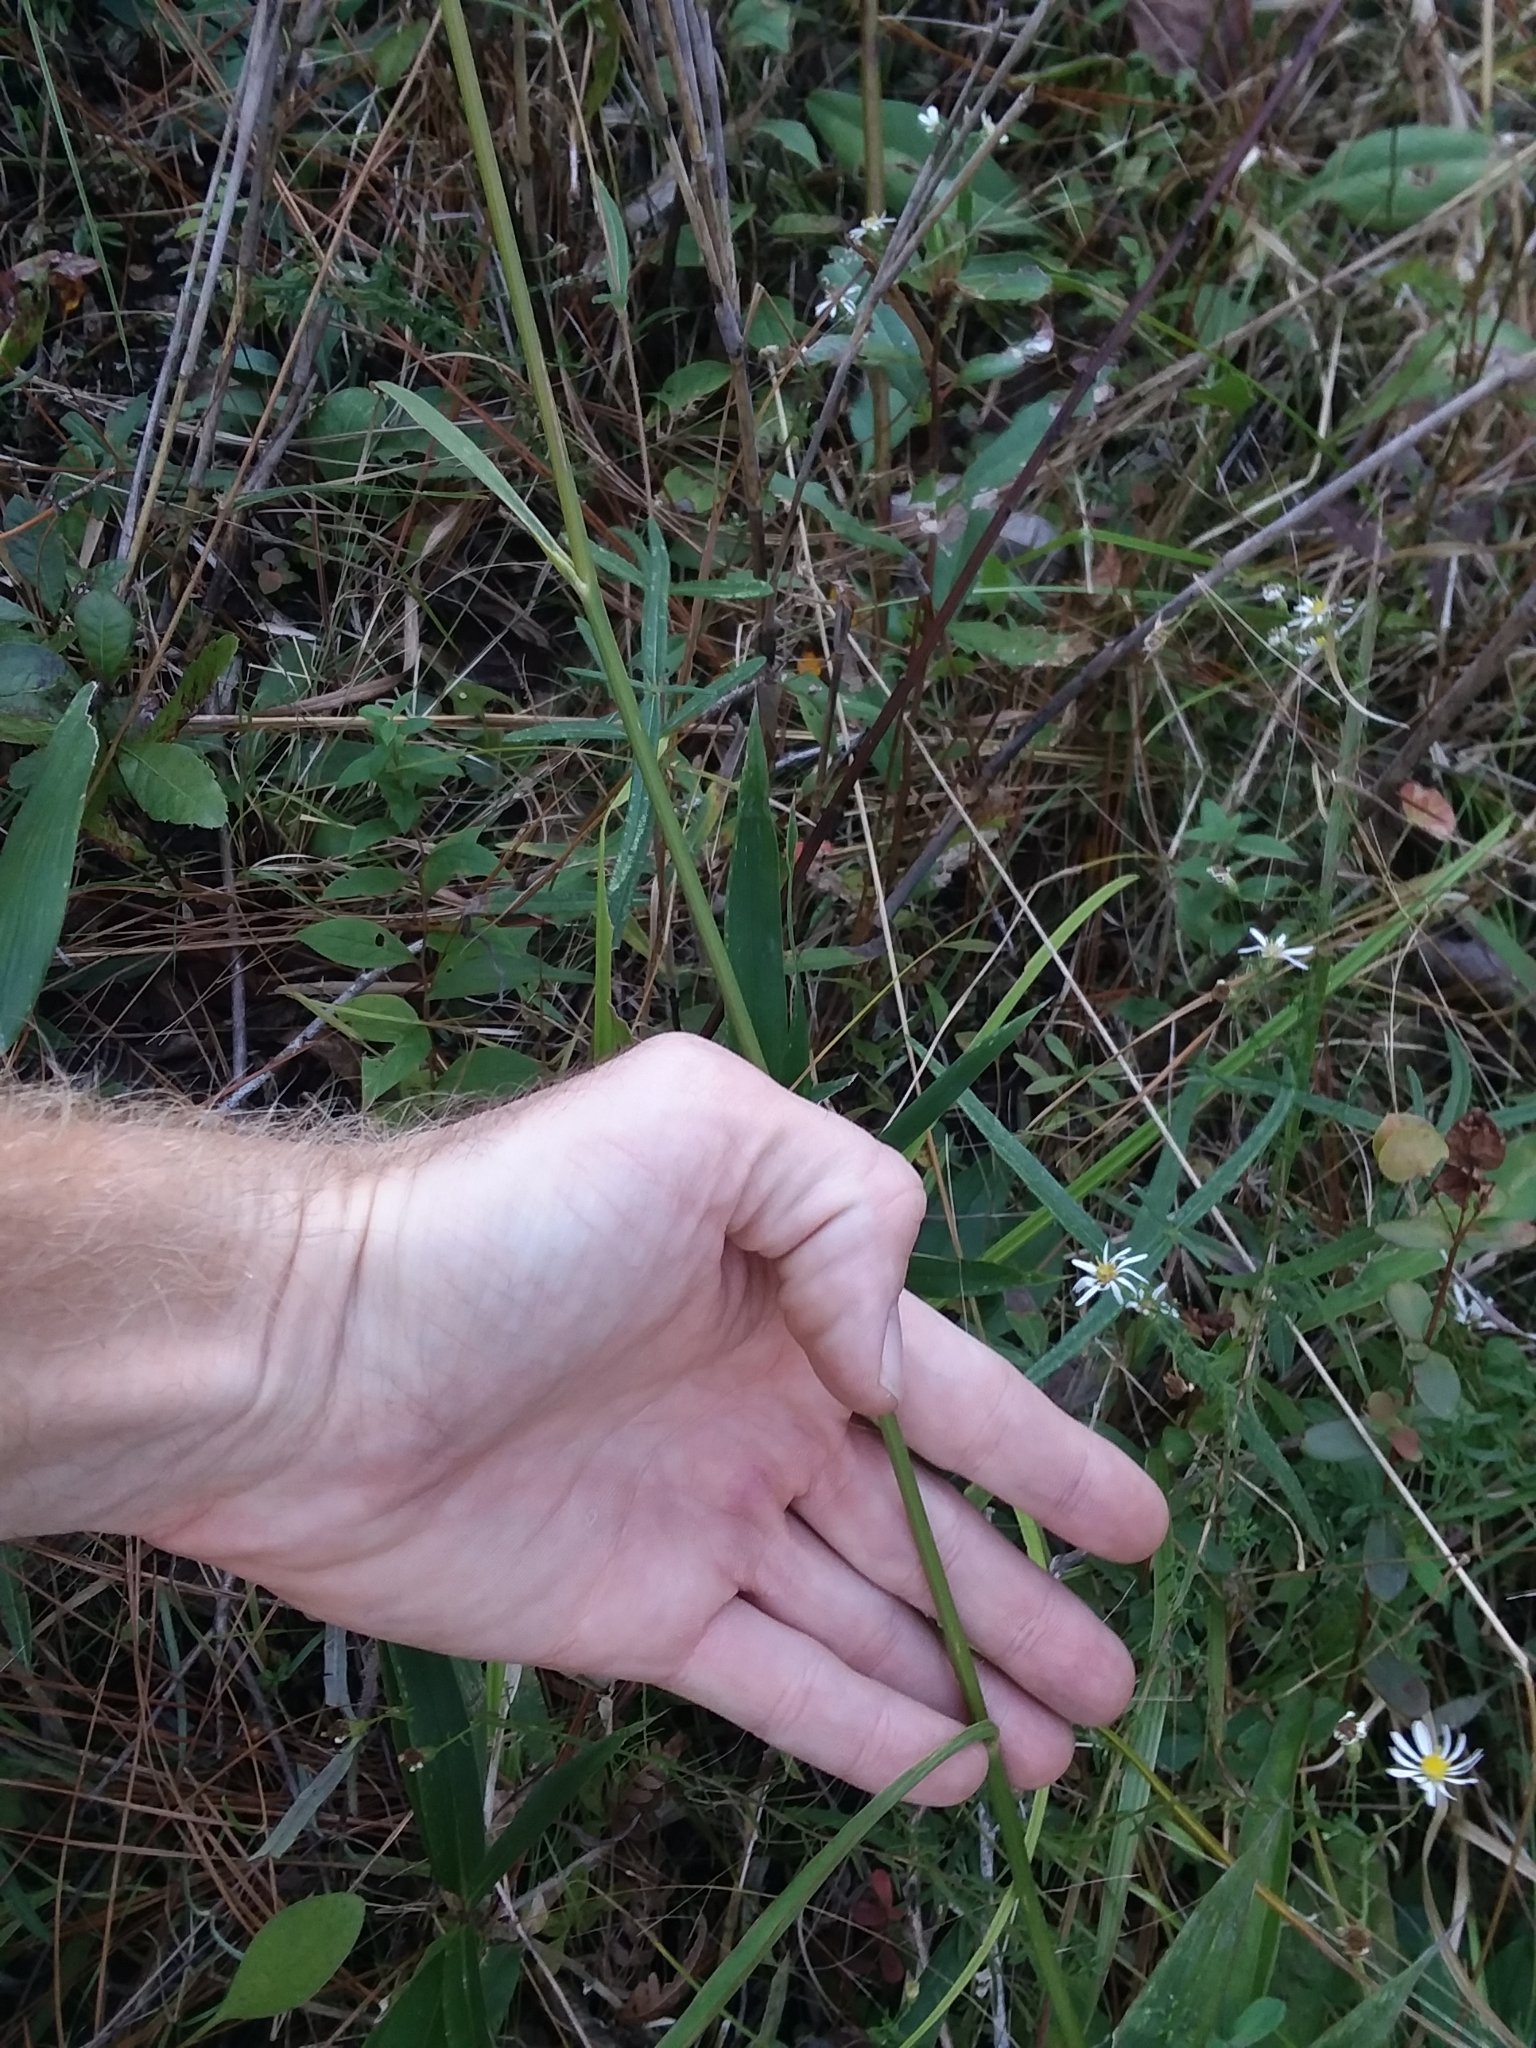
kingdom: Plantae
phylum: Tracheophyta
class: Magnoliopsida
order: Asterales
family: Asteraceae
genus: Coreopsis
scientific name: Coreopsis gladiata
